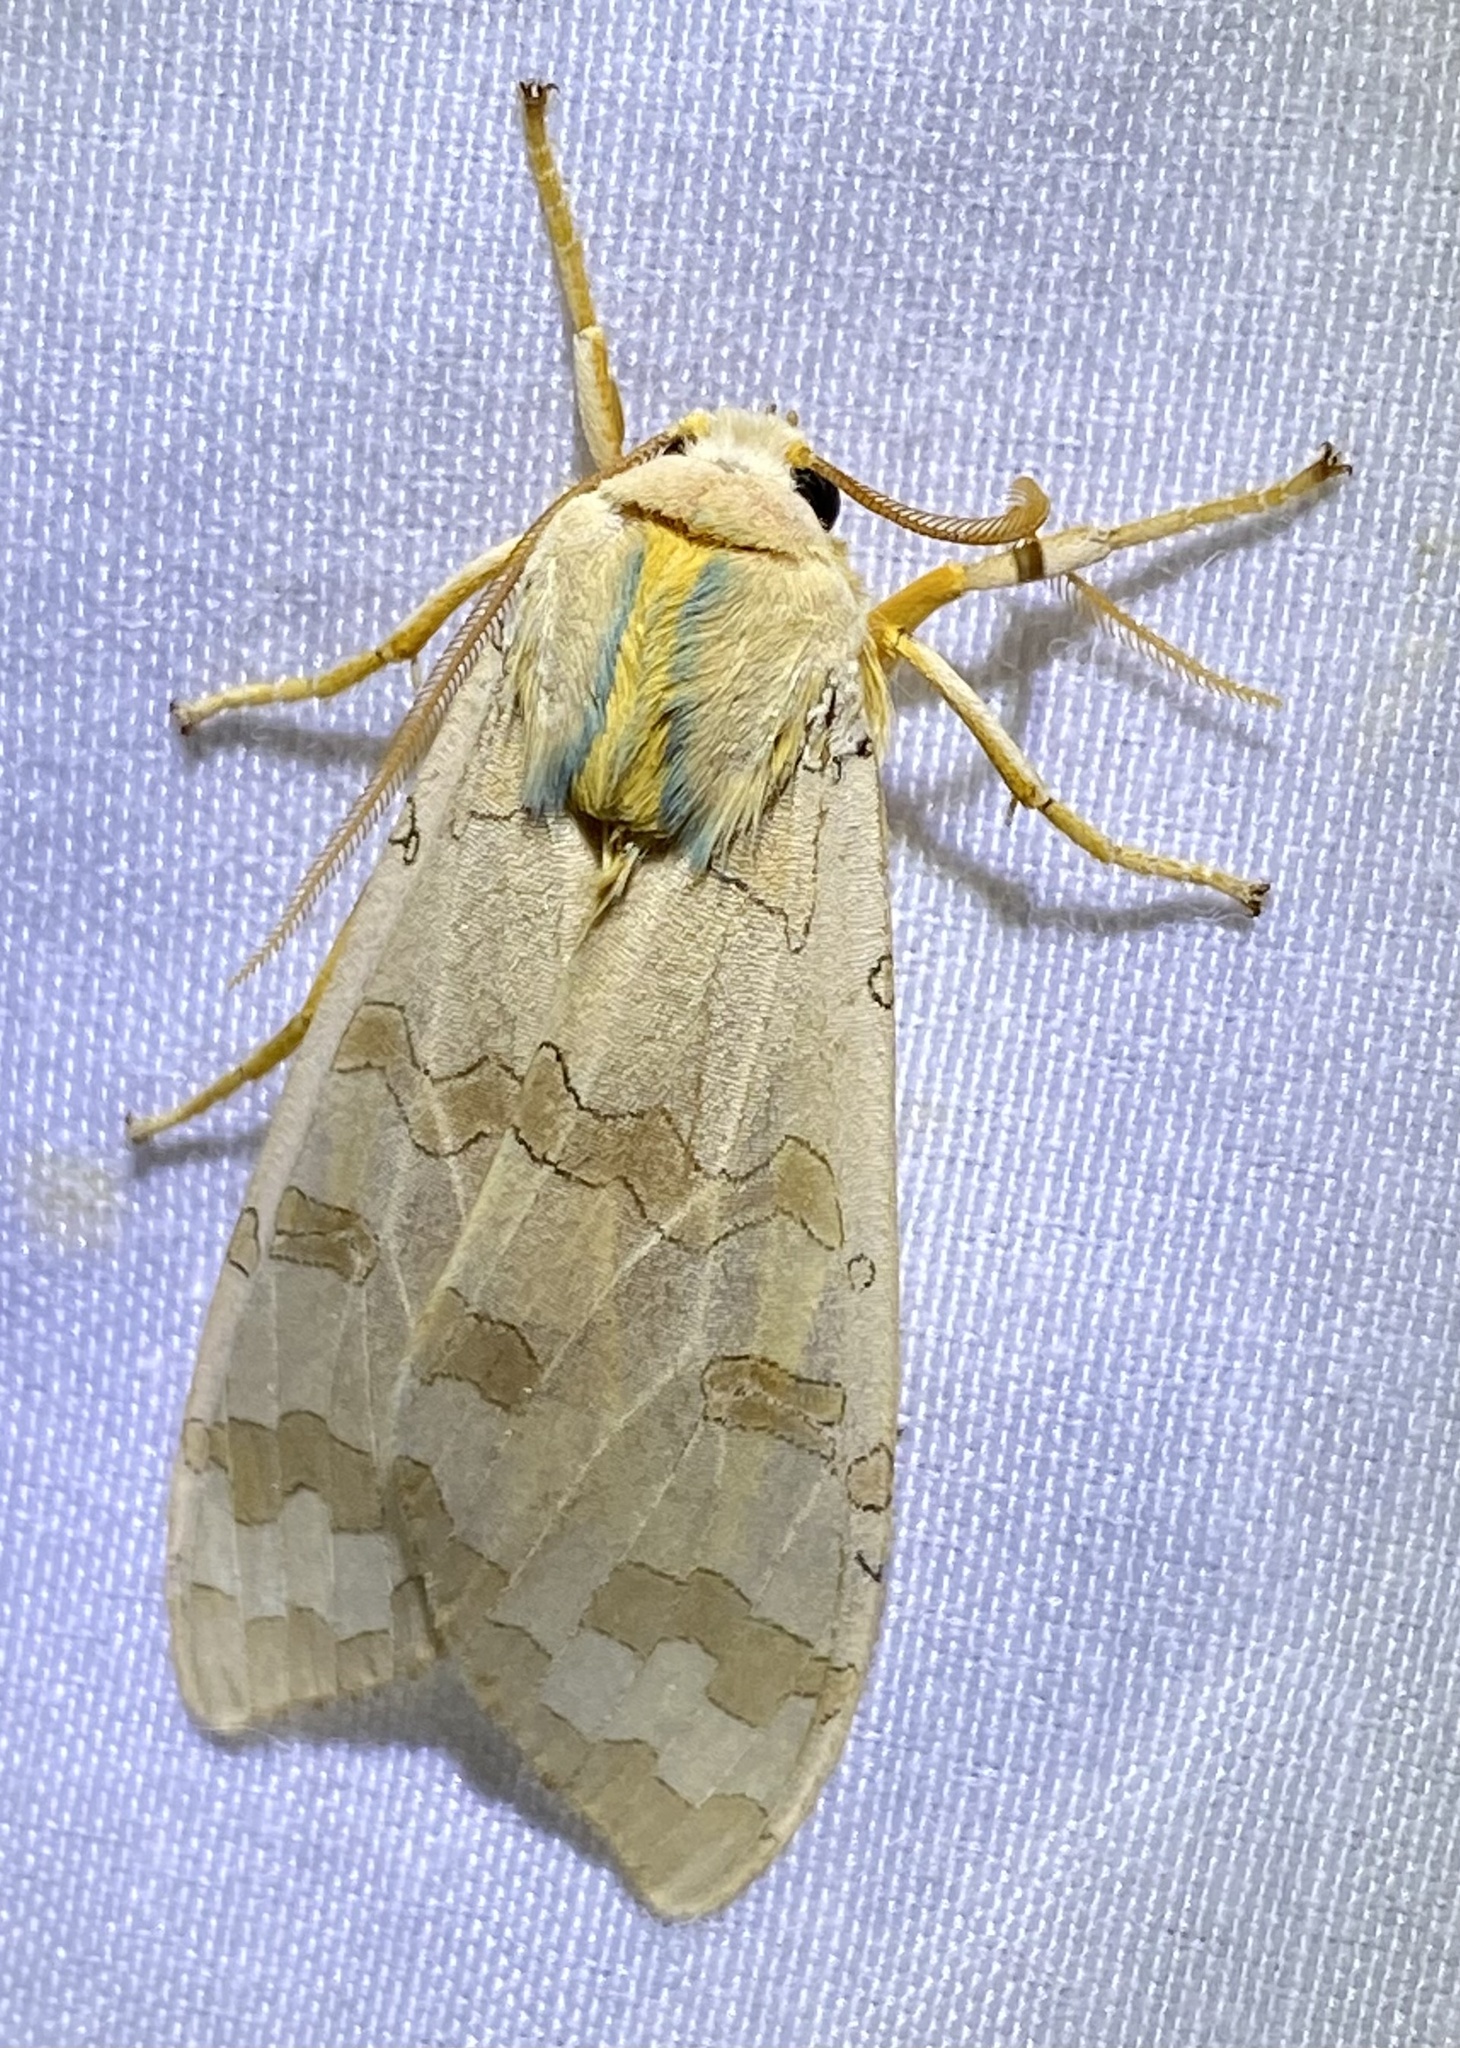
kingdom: Animalia
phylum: Arthropoda
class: Insecta
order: Lepidoptera
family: Erebidae
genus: Halysidota
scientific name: Halysidota
